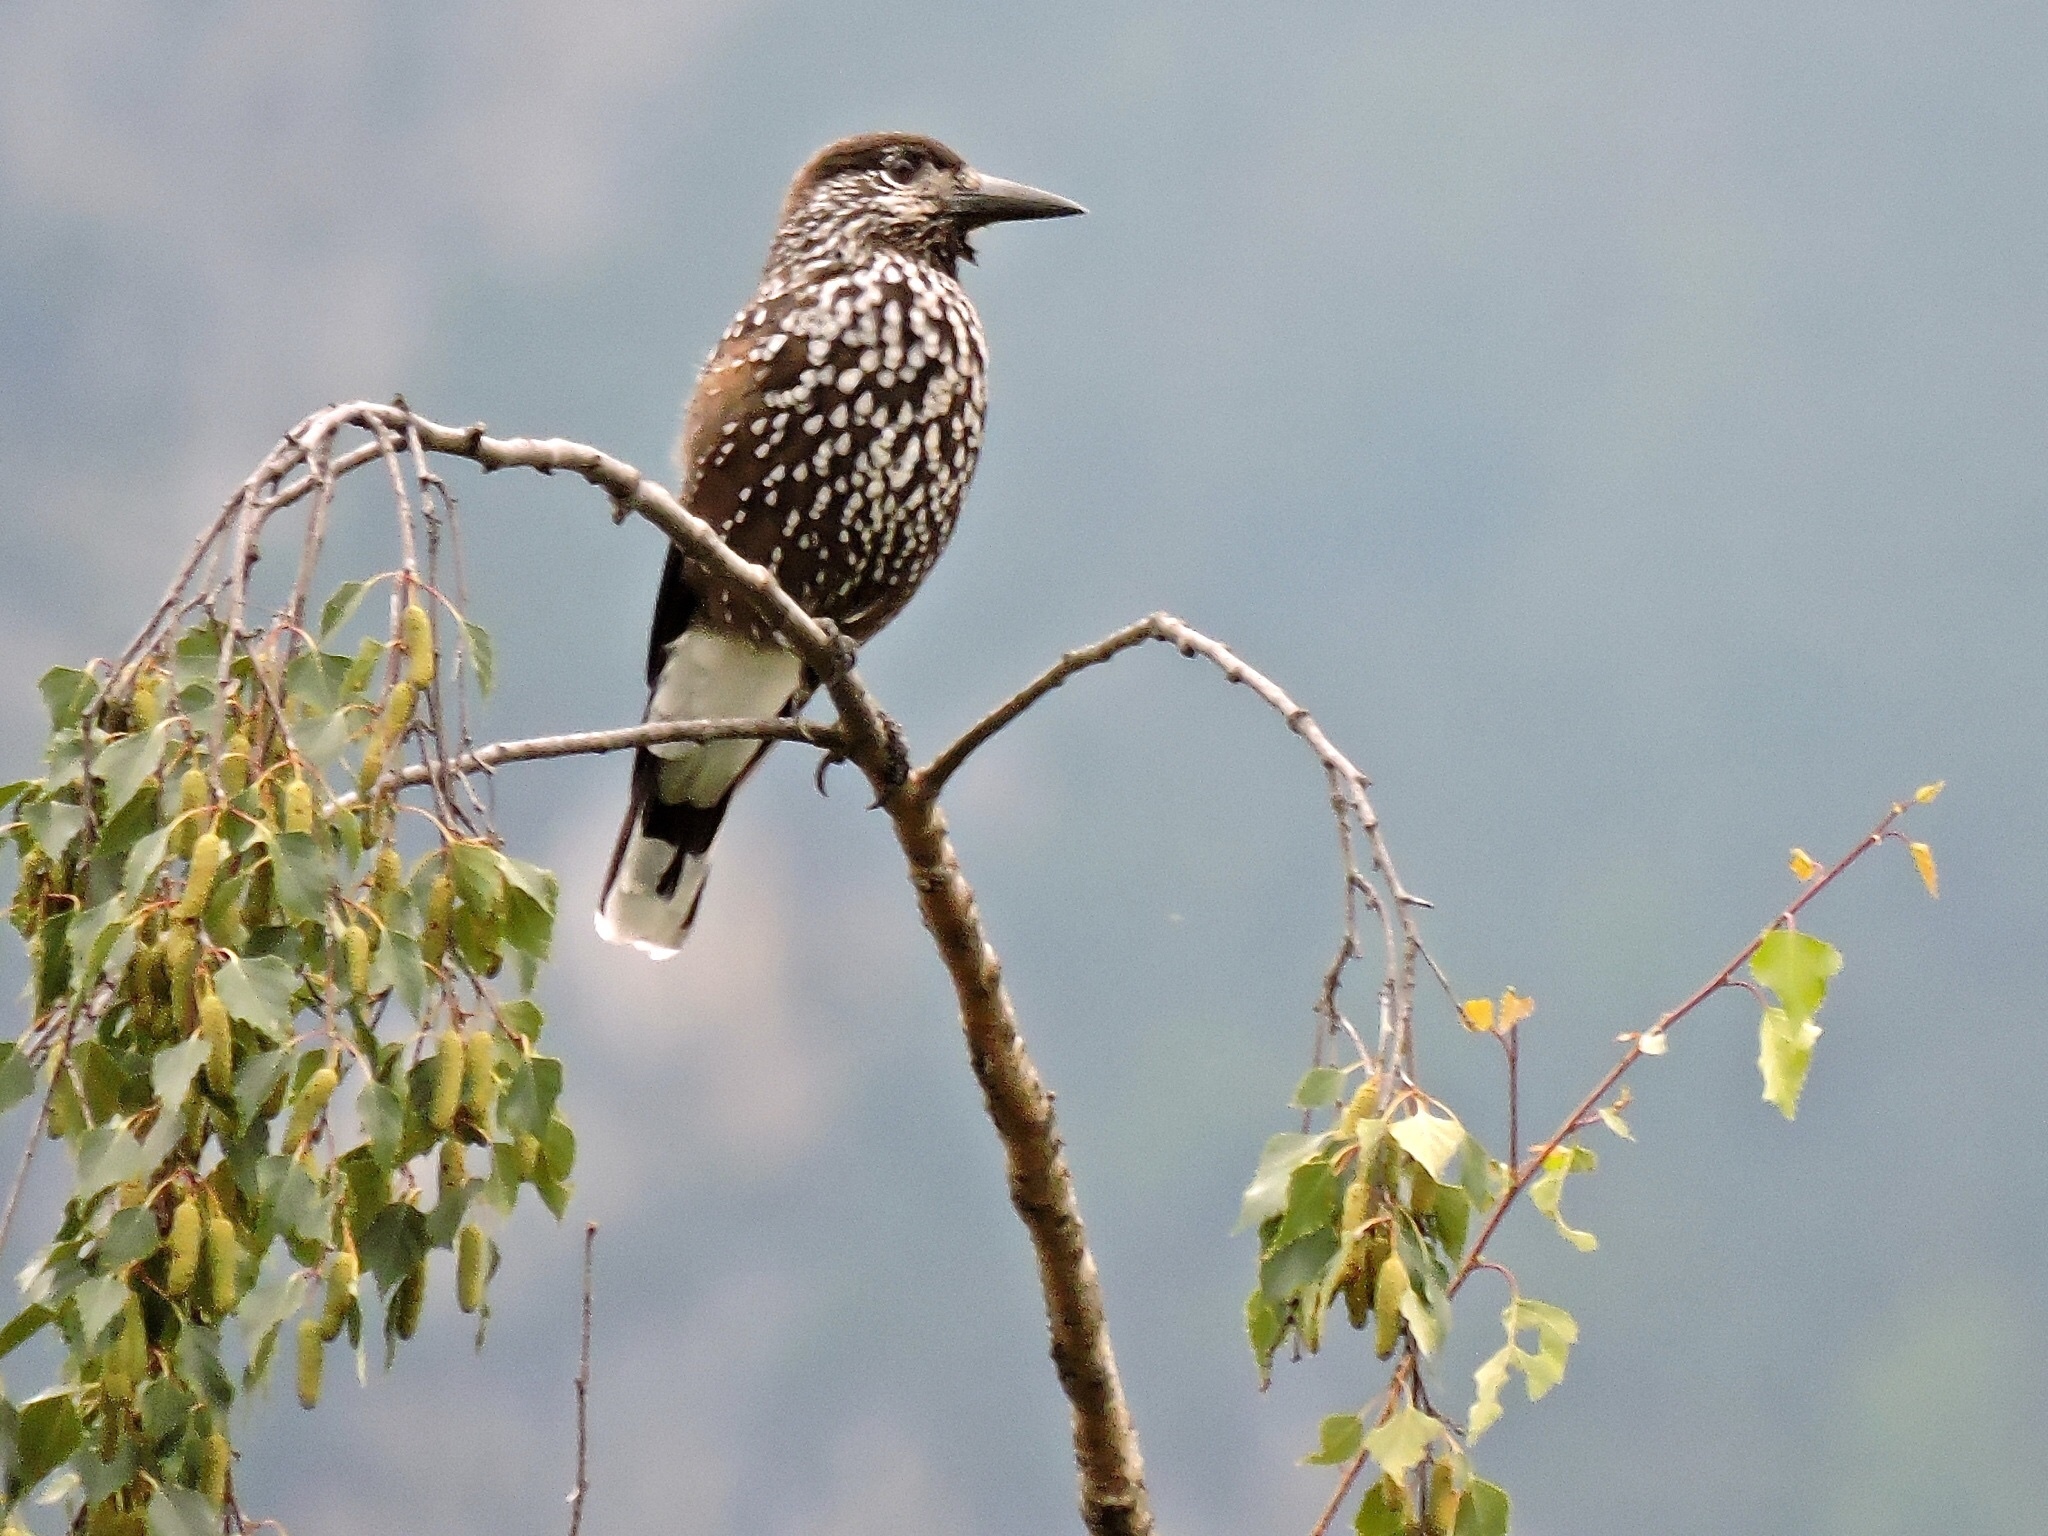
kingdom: Animalia
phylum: Chordata
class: Aves
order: Passeriformes
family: Corvidae
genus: Nucifraga
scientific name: Nucifraga caryocatactes
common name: Spotted nutcracker
